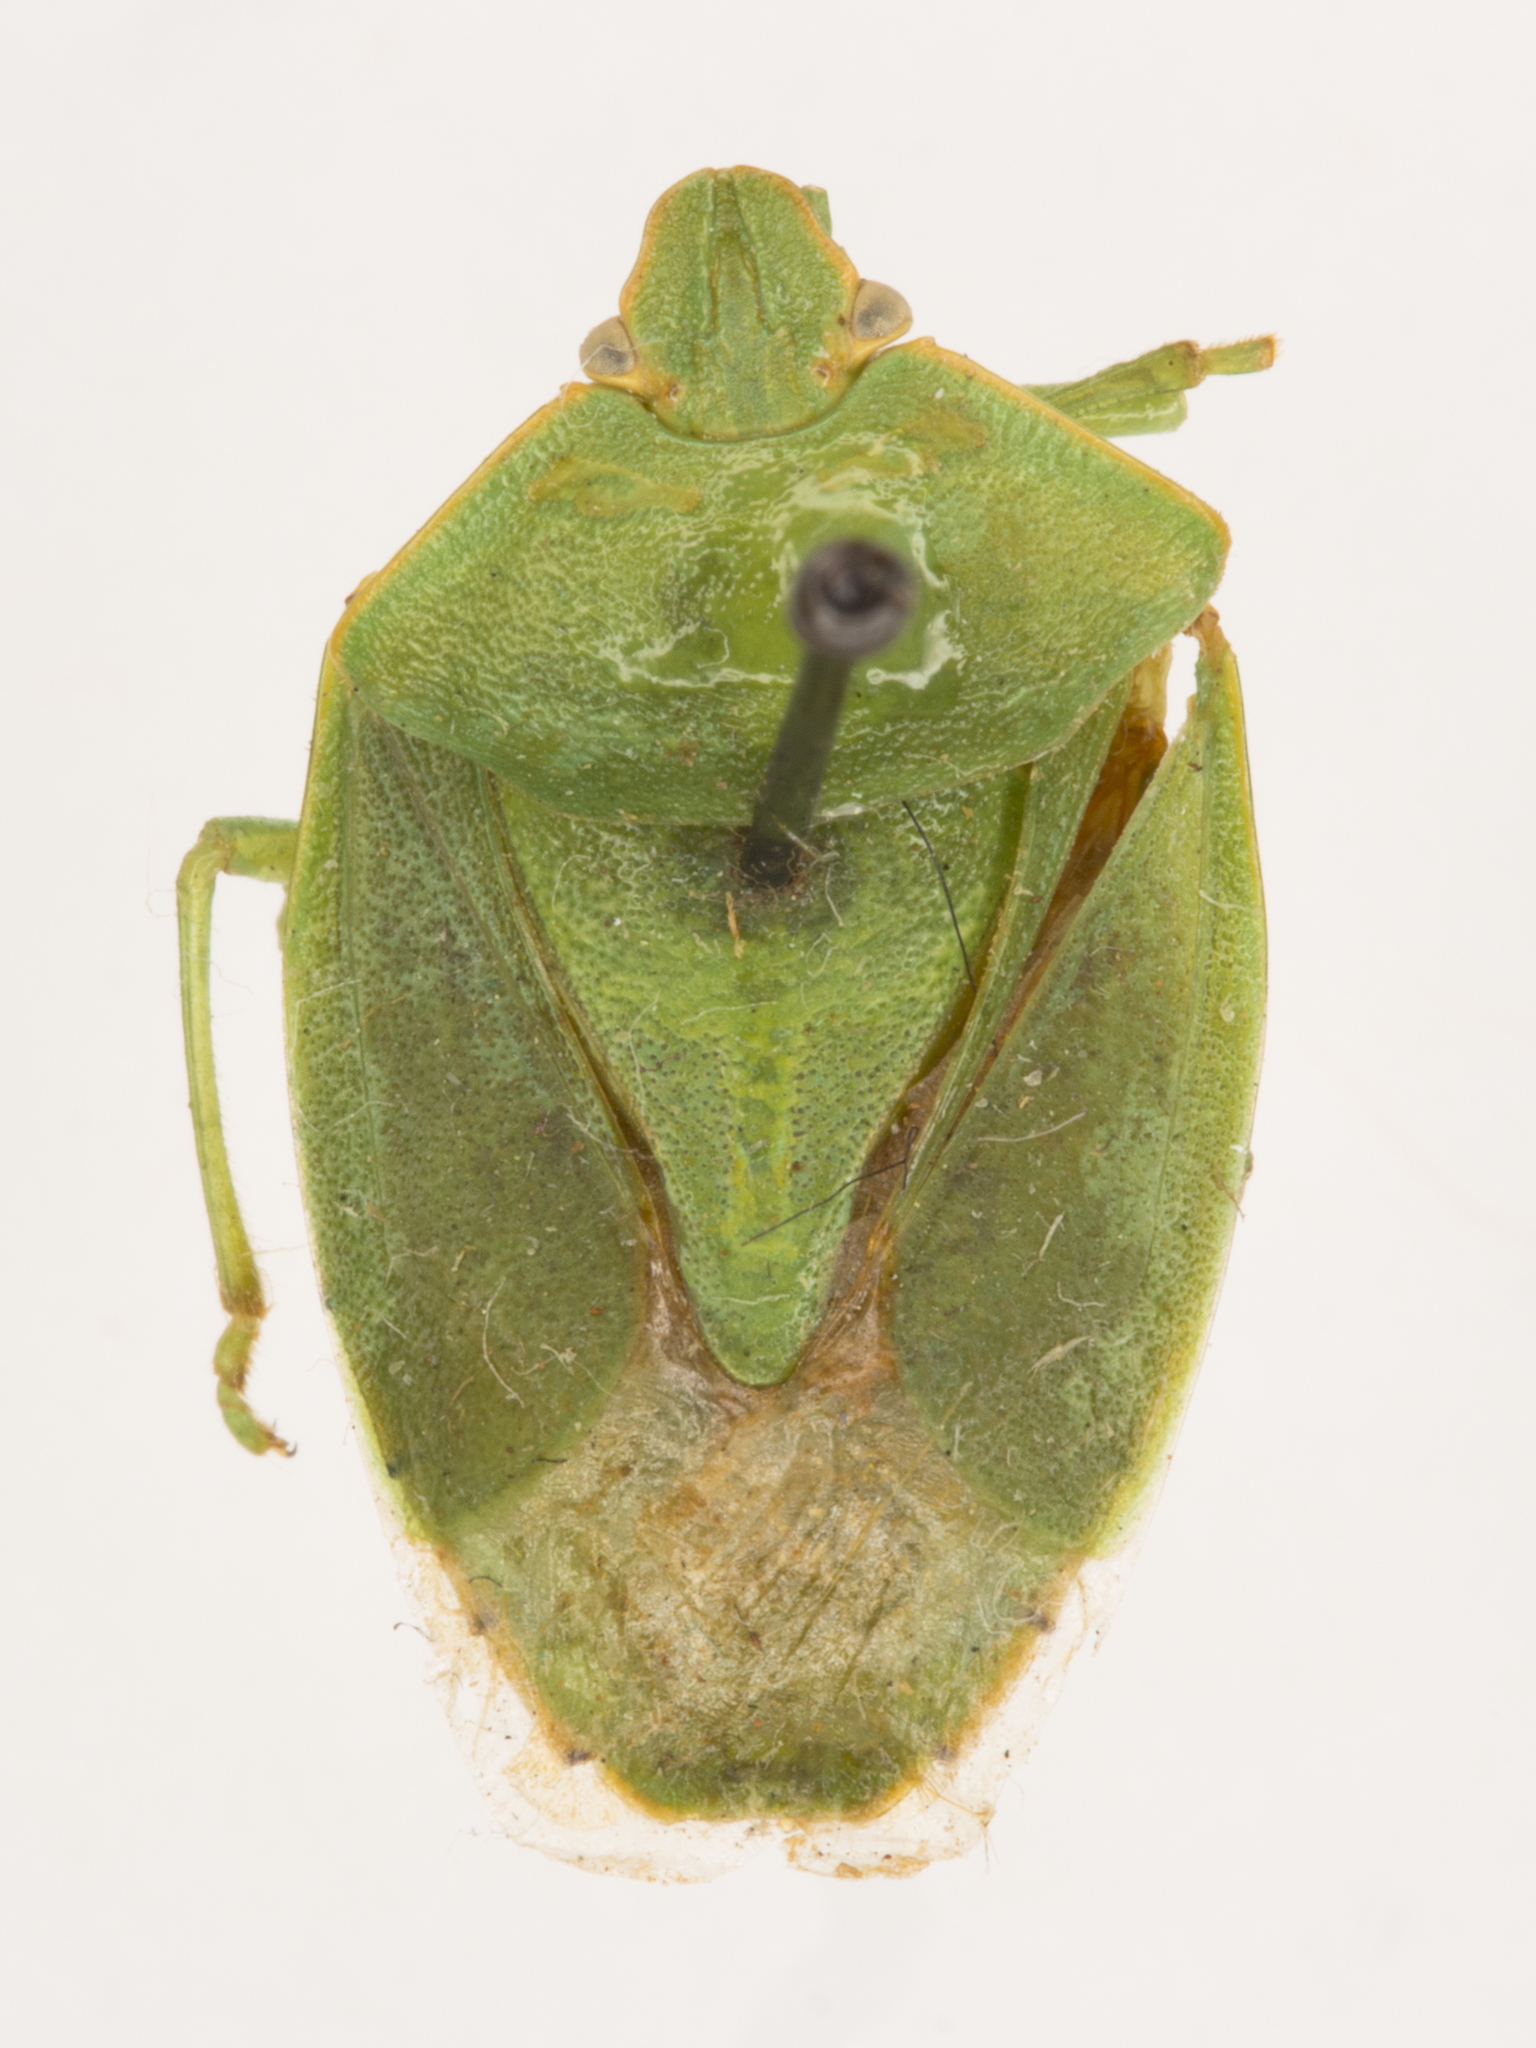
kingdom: Animalia
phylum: Arthropoda
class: Insecta
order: Hemiptera
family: Pentatomidae
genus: Chinavia
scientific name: Chinavia hilaris
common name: Green stink bug
